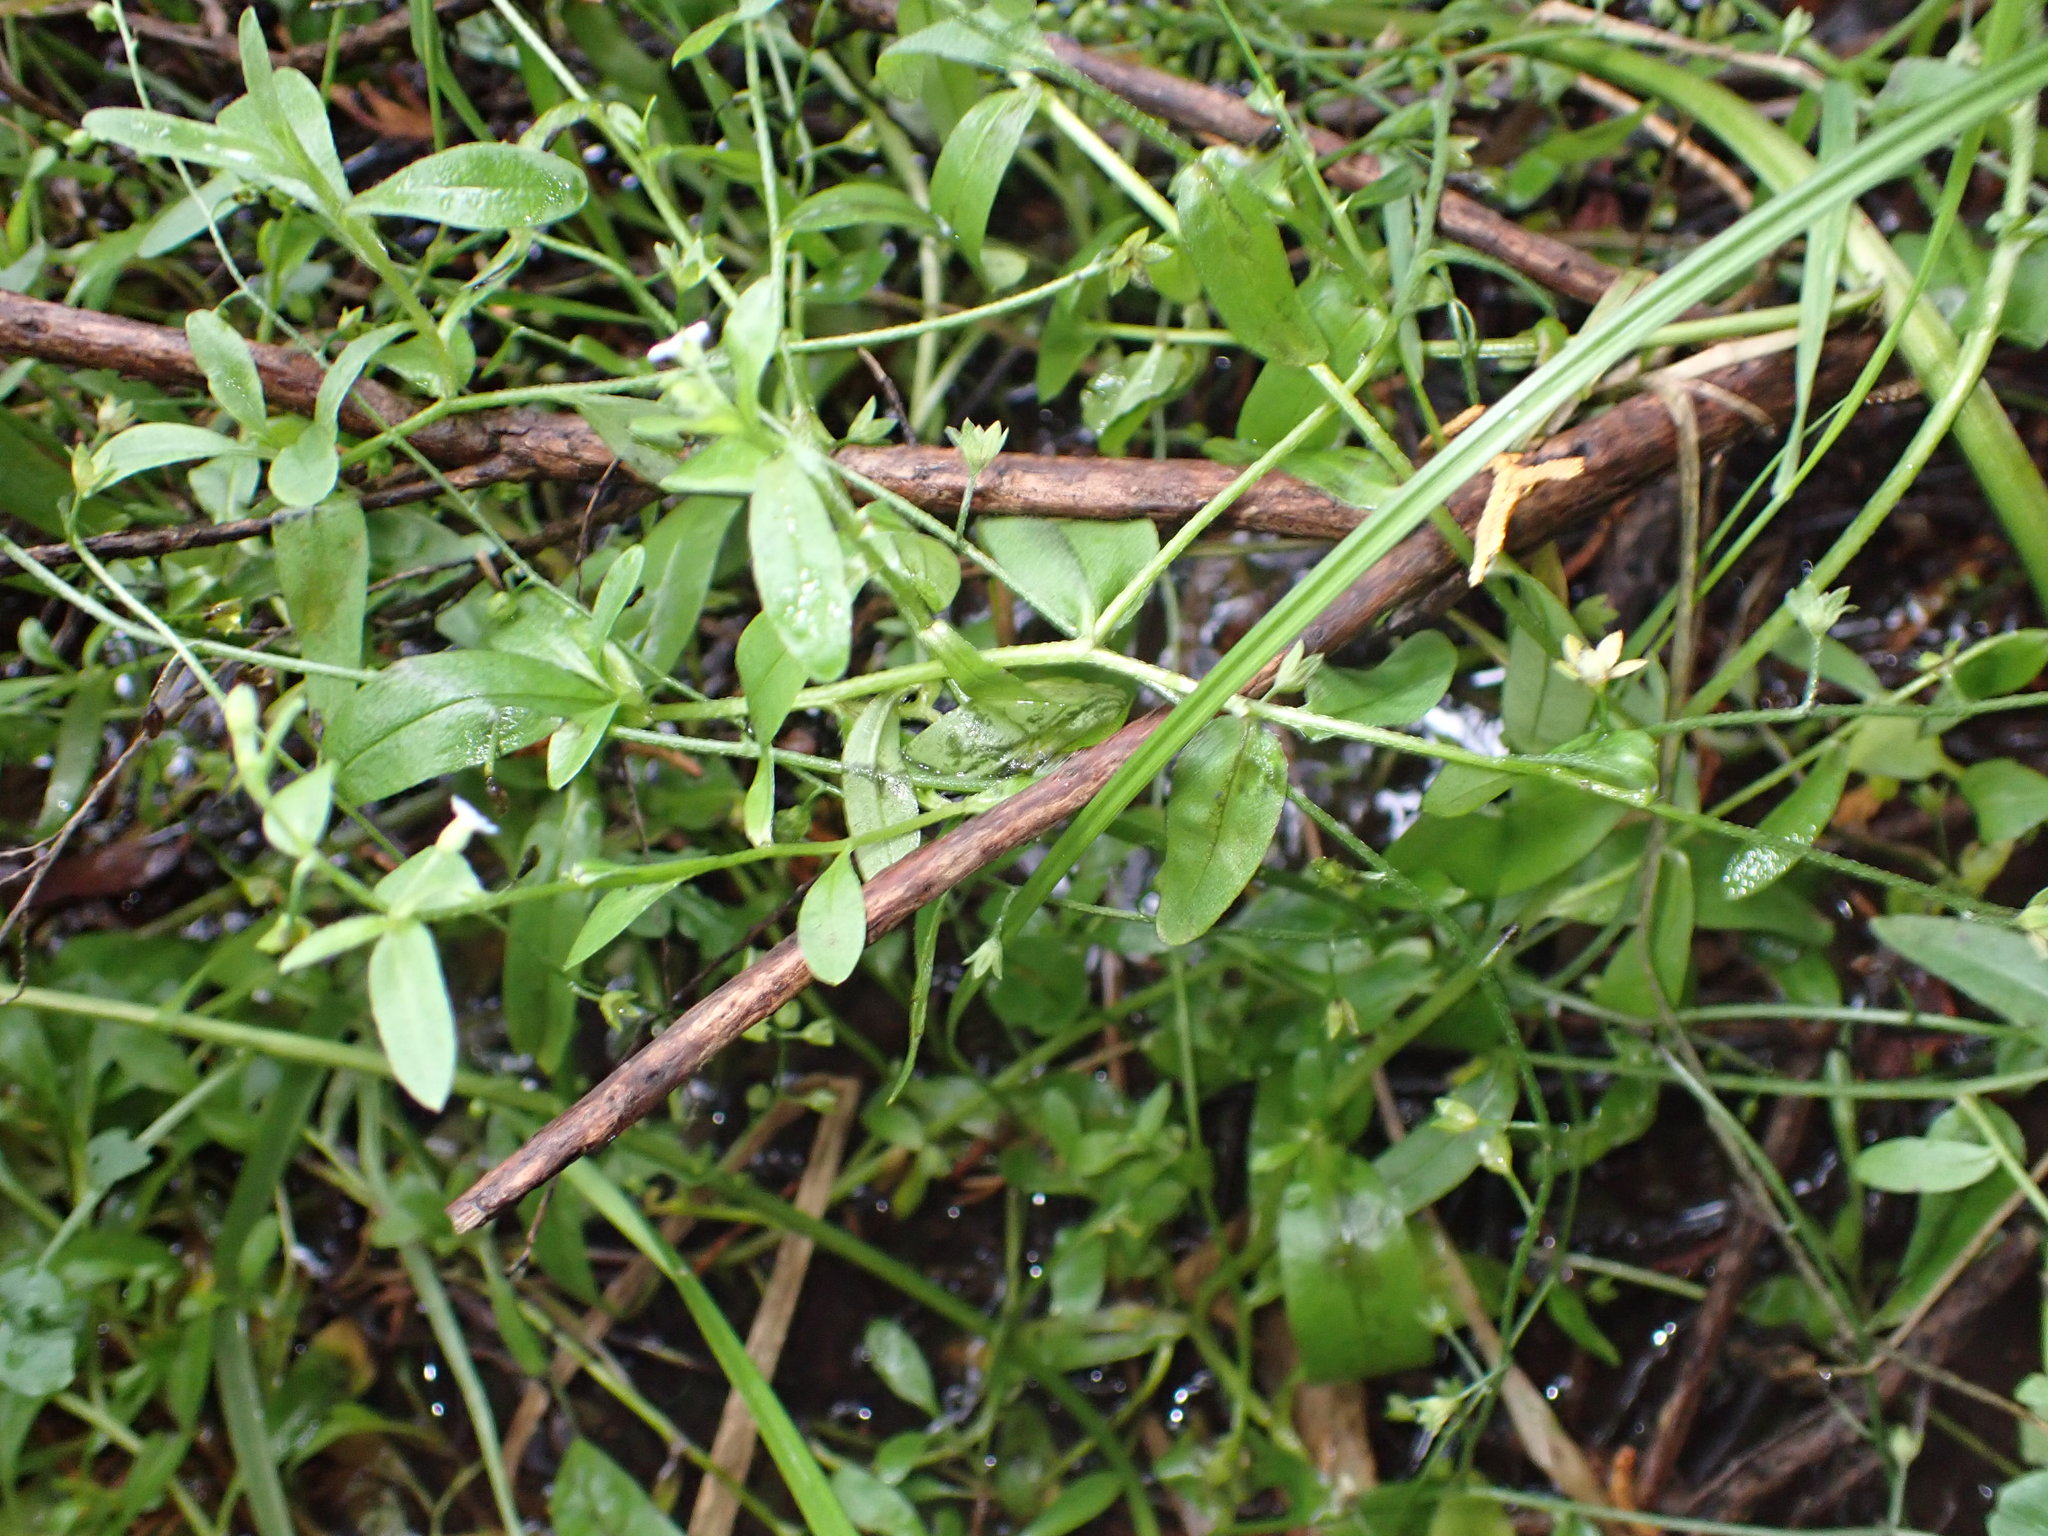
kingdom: Plantae
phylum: Tracheophyta
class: Magnoliopsida
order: Boraginales
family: Boraginaceae
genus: Myosotis
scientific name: Myosotis laxa
